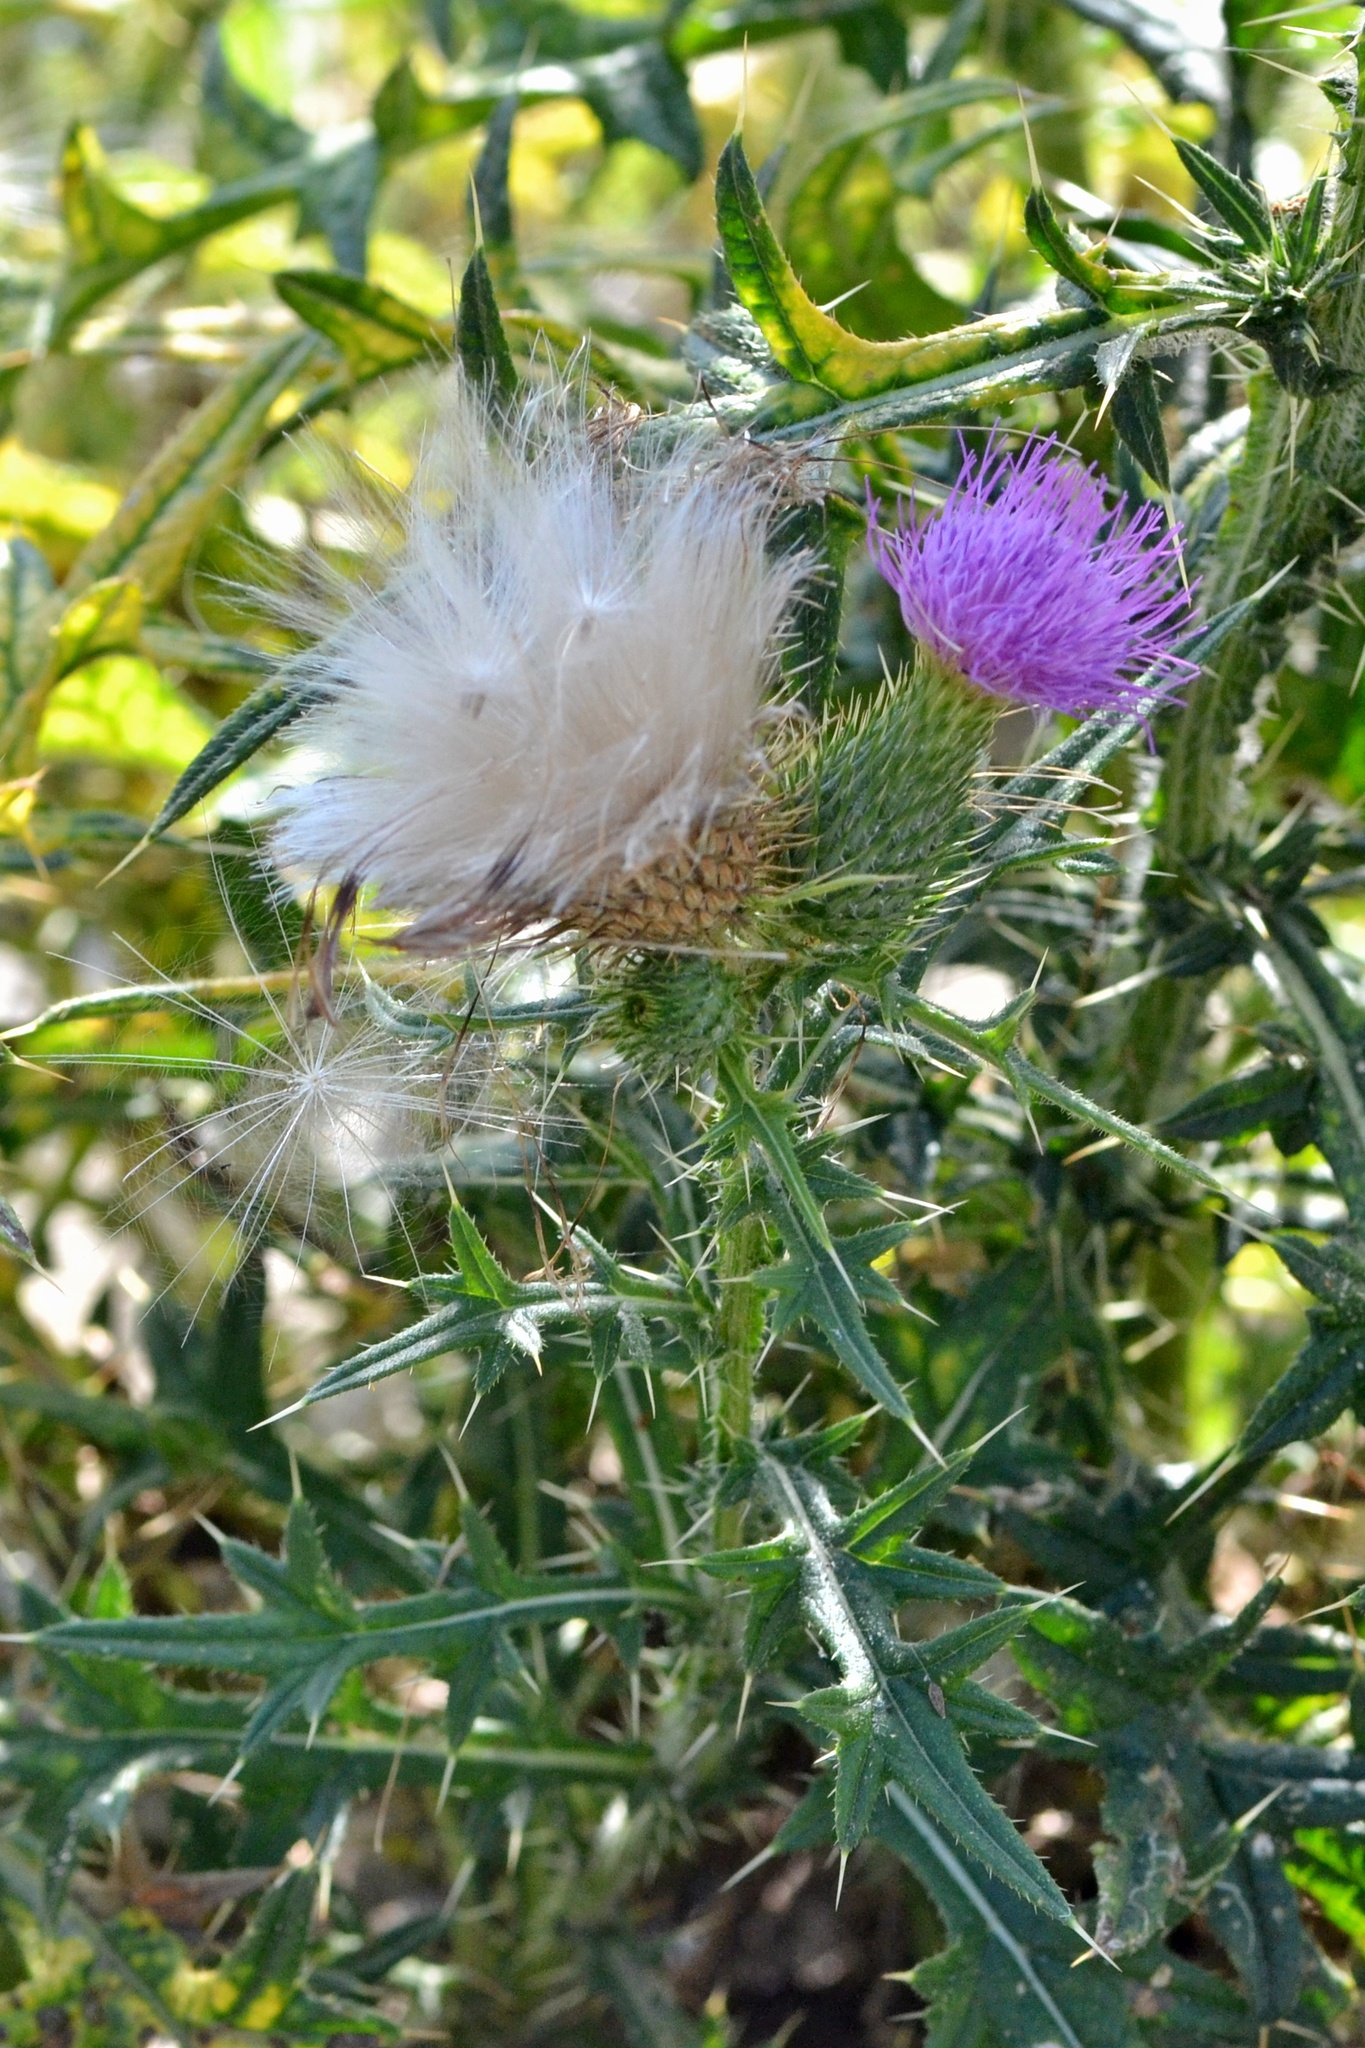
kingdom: Plantae
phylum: Tracheophyta
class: Magnoliopsida
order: Asterales
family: Asteraceae
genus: Cirsium
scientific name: Cirsium vulgare
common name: Bull thistle
